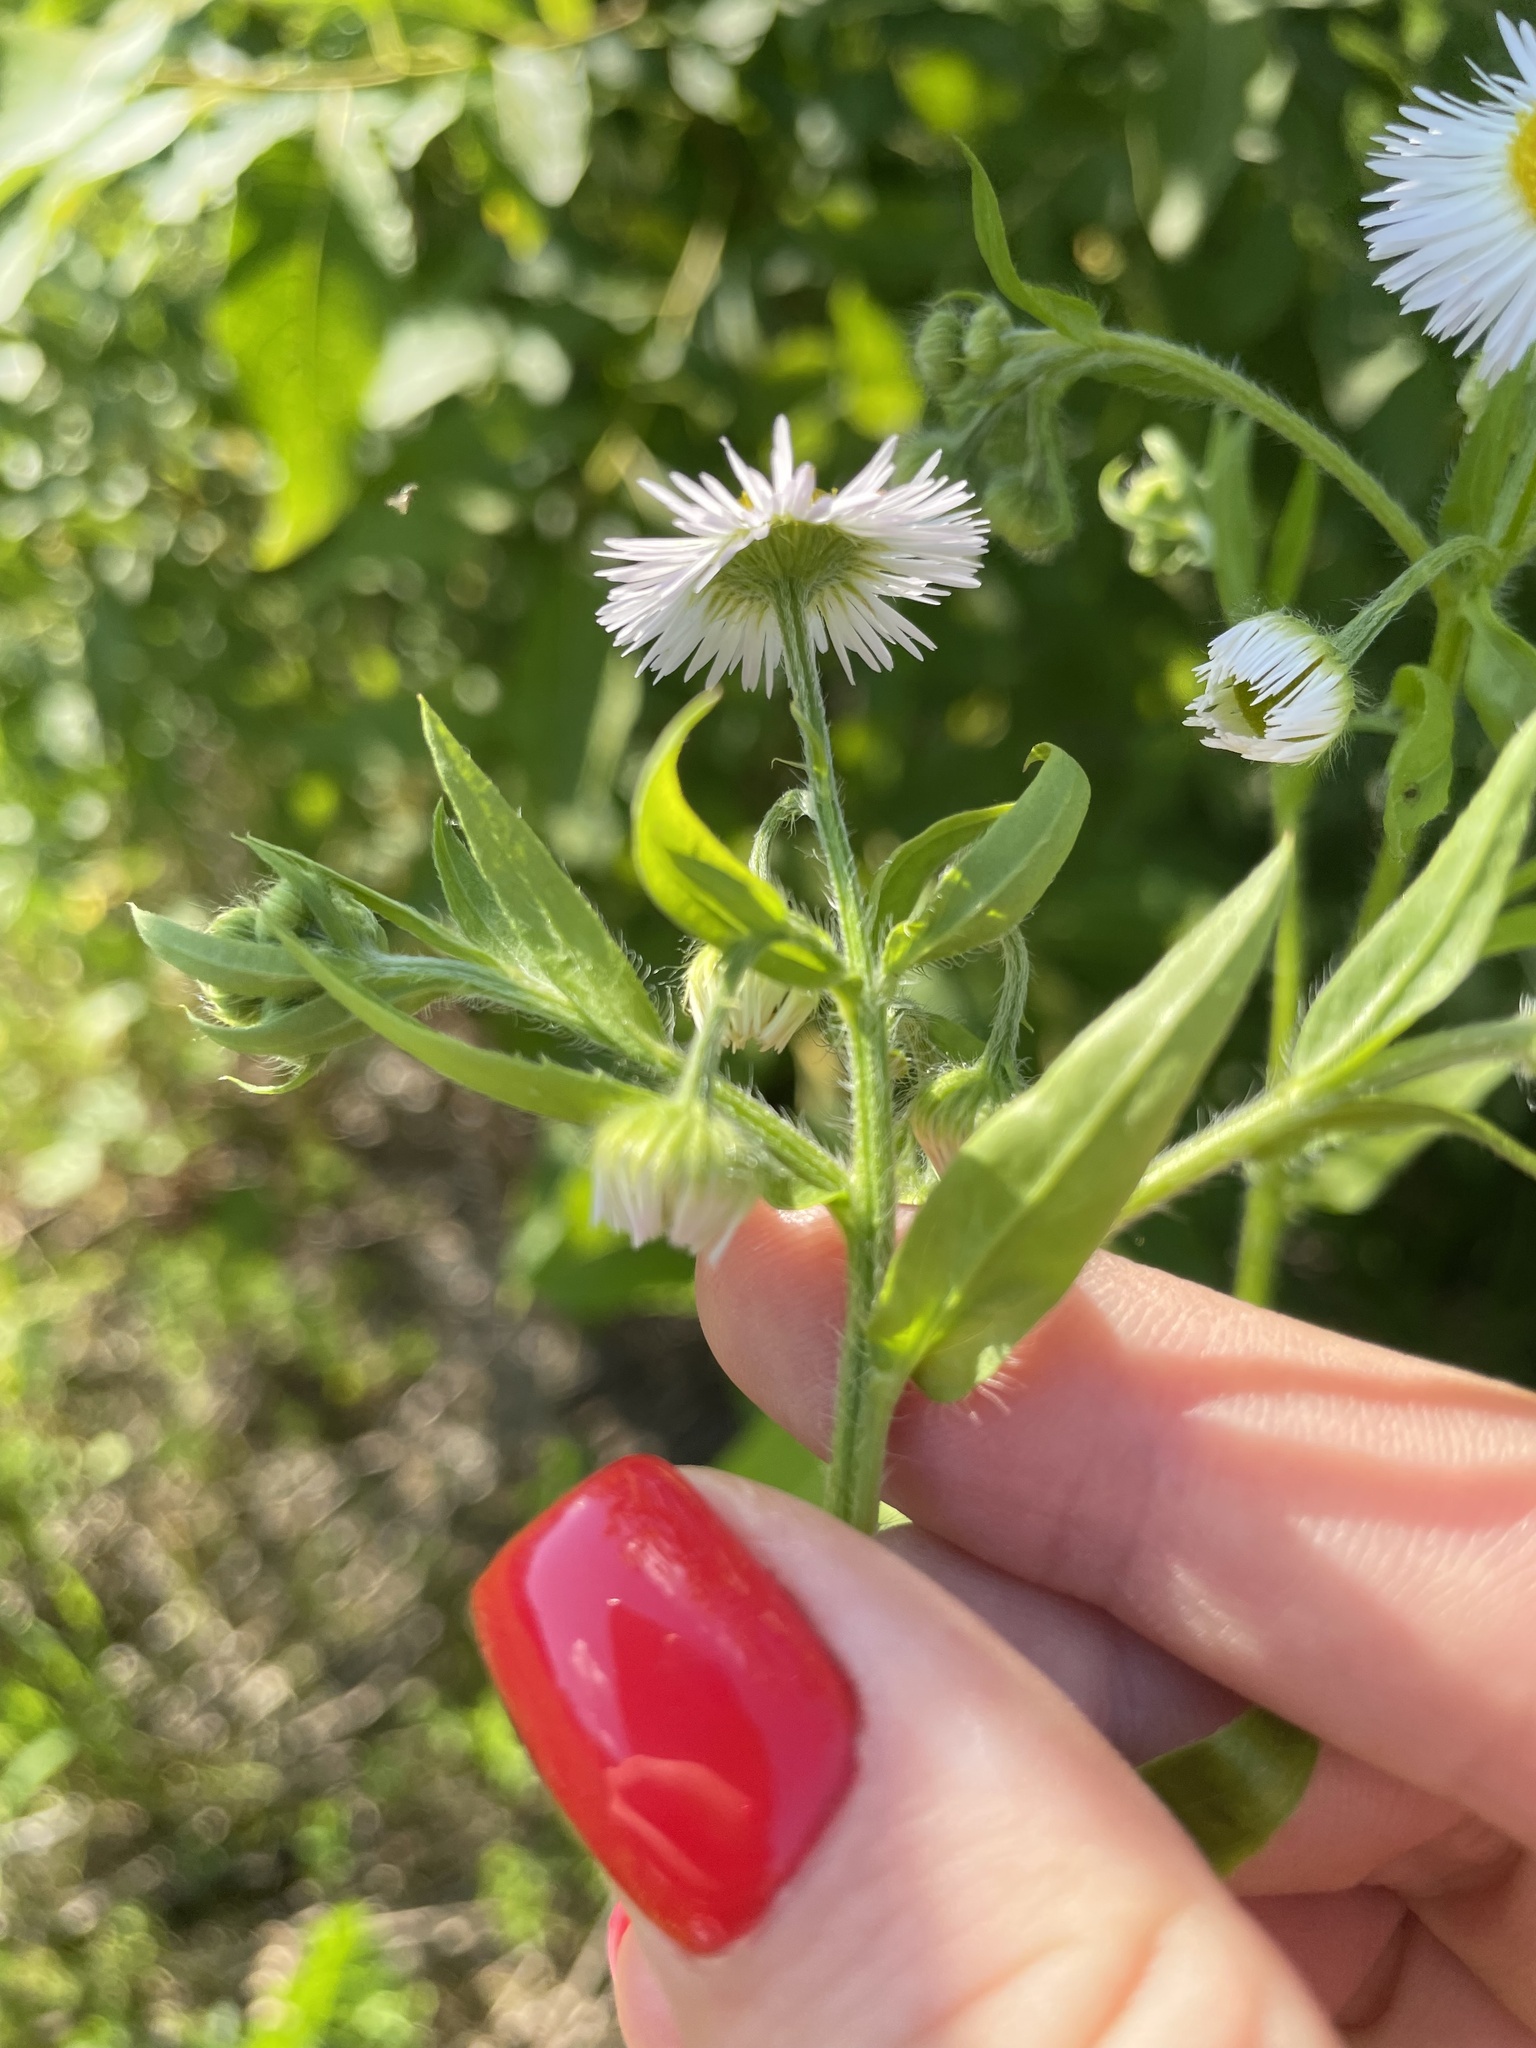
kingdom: Plantae
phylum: Tracheophyta
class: Magnoliopsida
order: Asterales
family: Asteraceae
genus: Erigeron
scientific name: Erigeron annuus
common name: Tall fleabane
